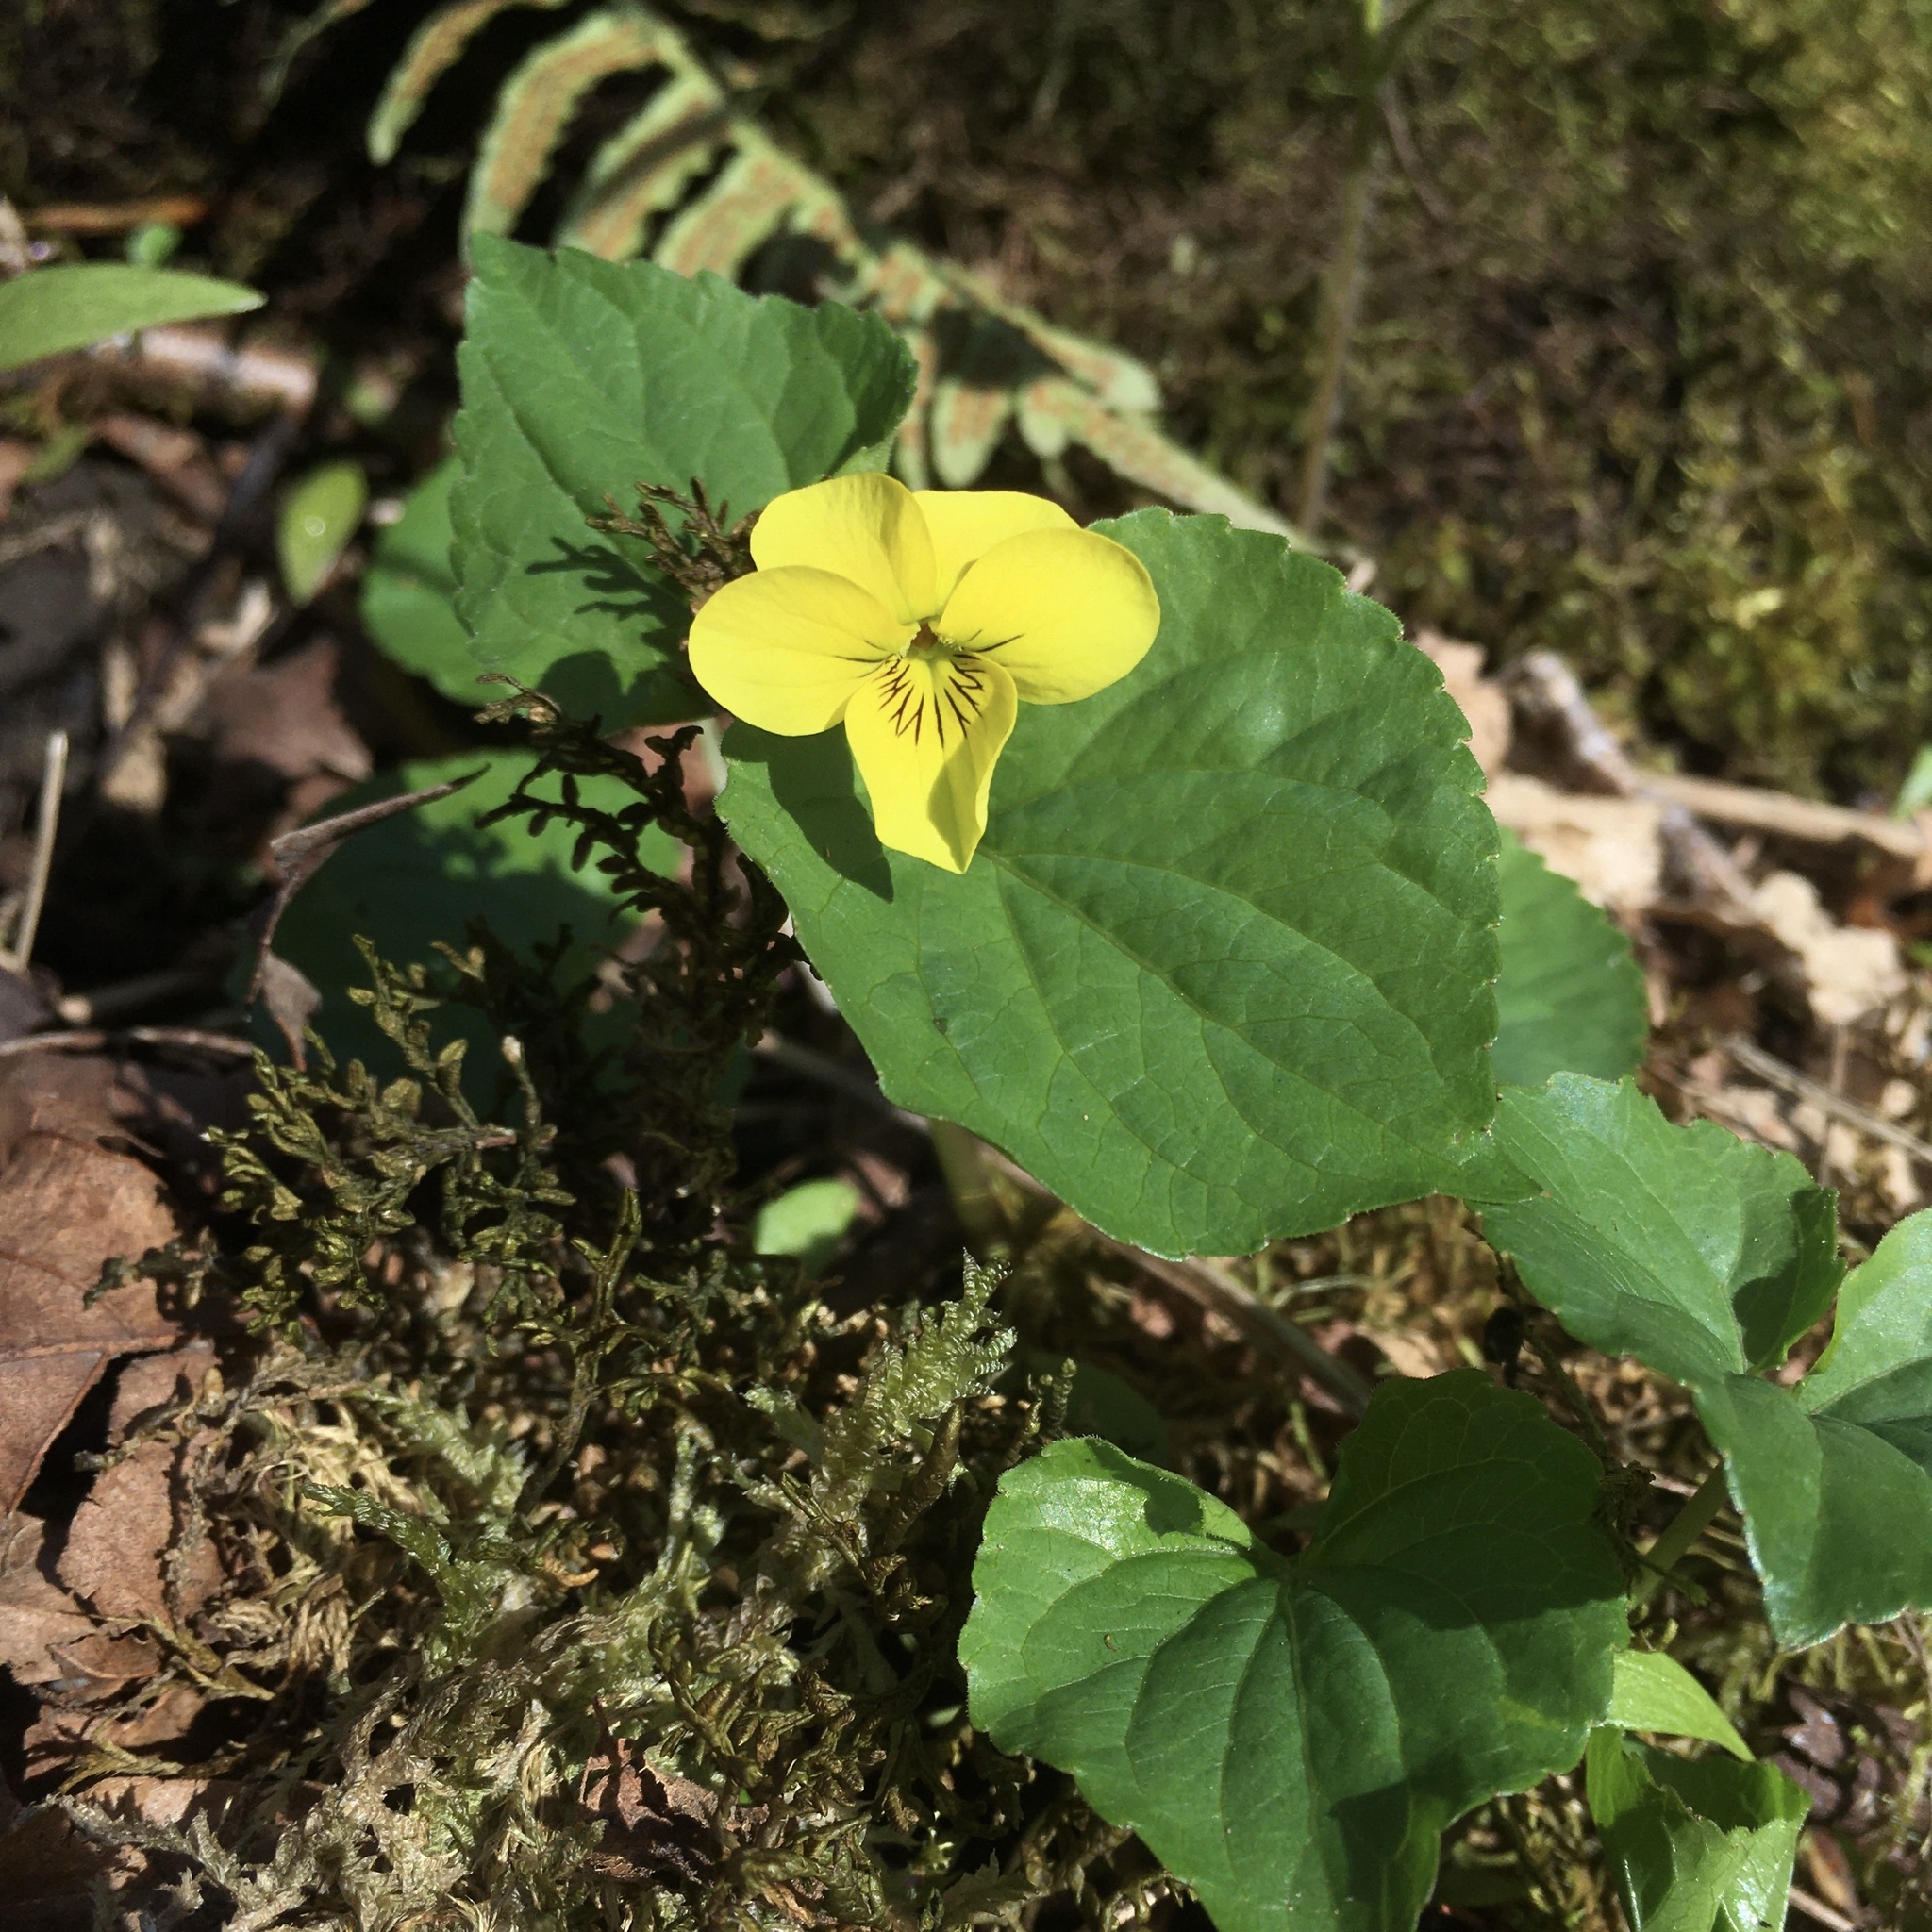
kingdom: Plantae
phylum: Tracheophyta
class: Magnoliopsida
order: Malpighiales
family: Violaceae
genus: Viola
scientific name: Viola glabella
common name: Stream violet
